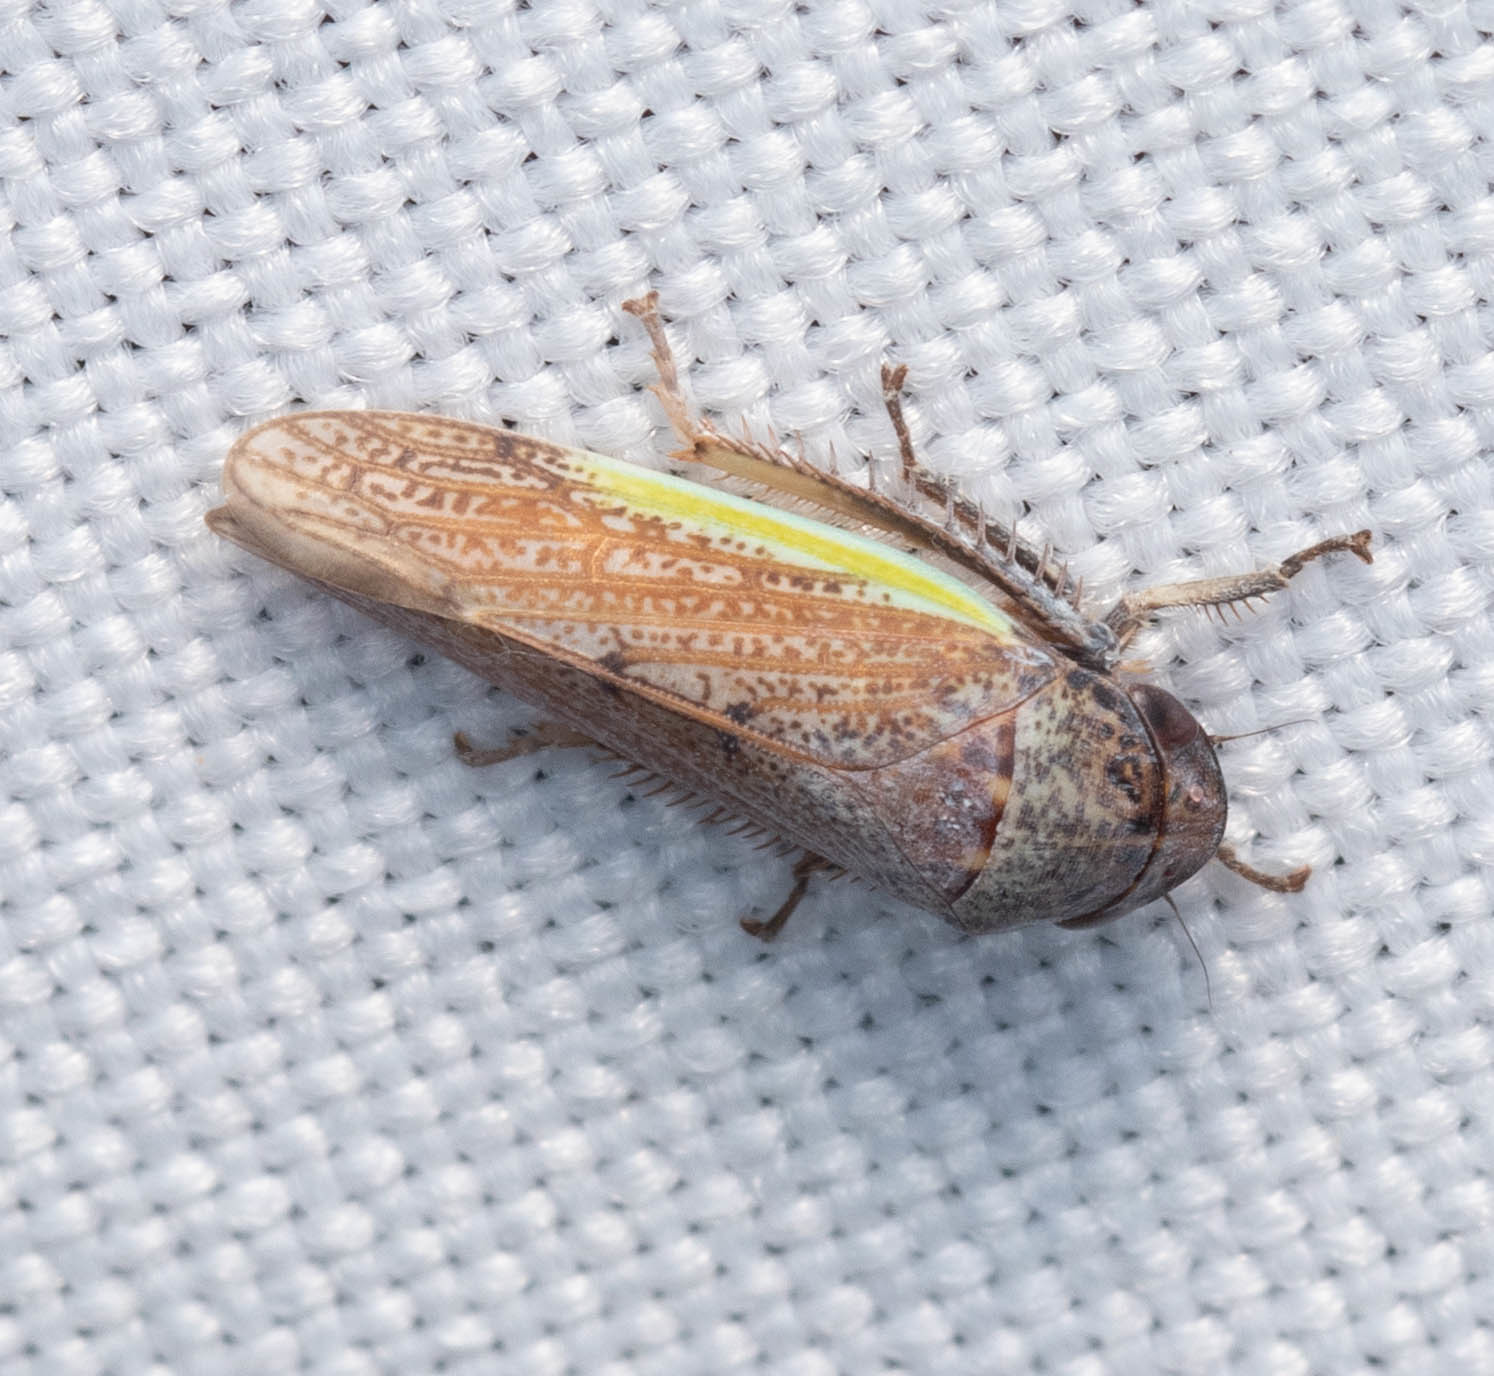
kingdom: Animalia
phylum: Arthropoda
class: Insecta
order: Hemiptera
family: Cicadellidae
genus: Hamana
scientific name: Hamana gelbata
